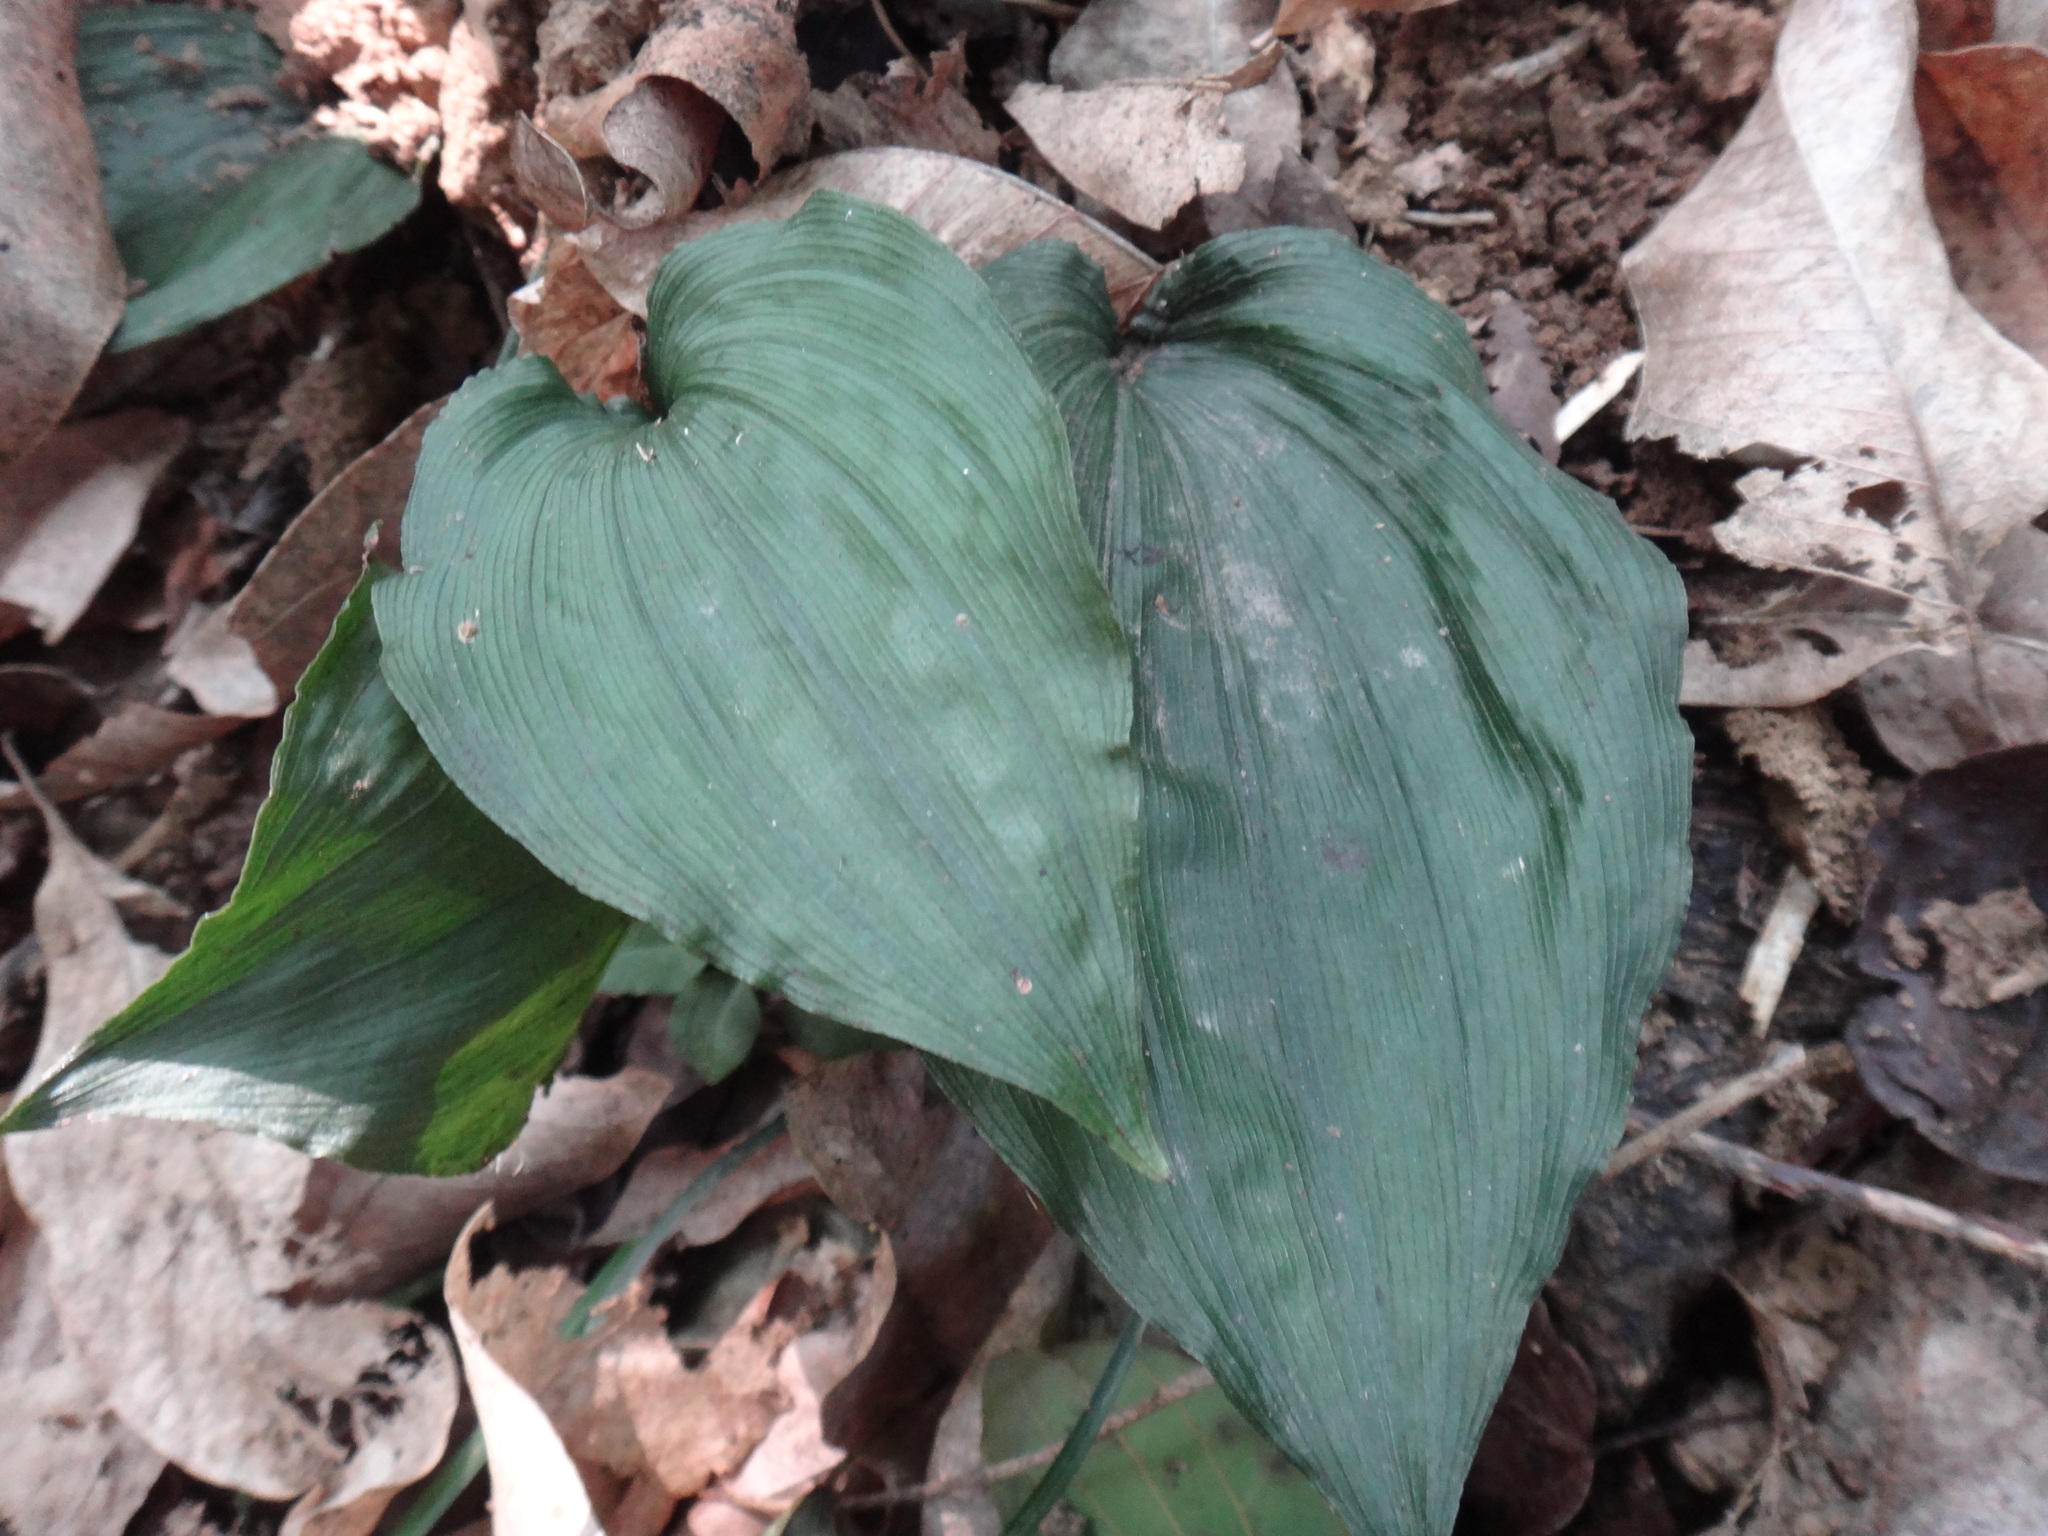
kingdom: Plantae
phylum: Tracheophyta
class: Liliopsida
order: Asparagales
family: Orchidaceae
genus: Tropidia
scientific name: Tropidia somae
